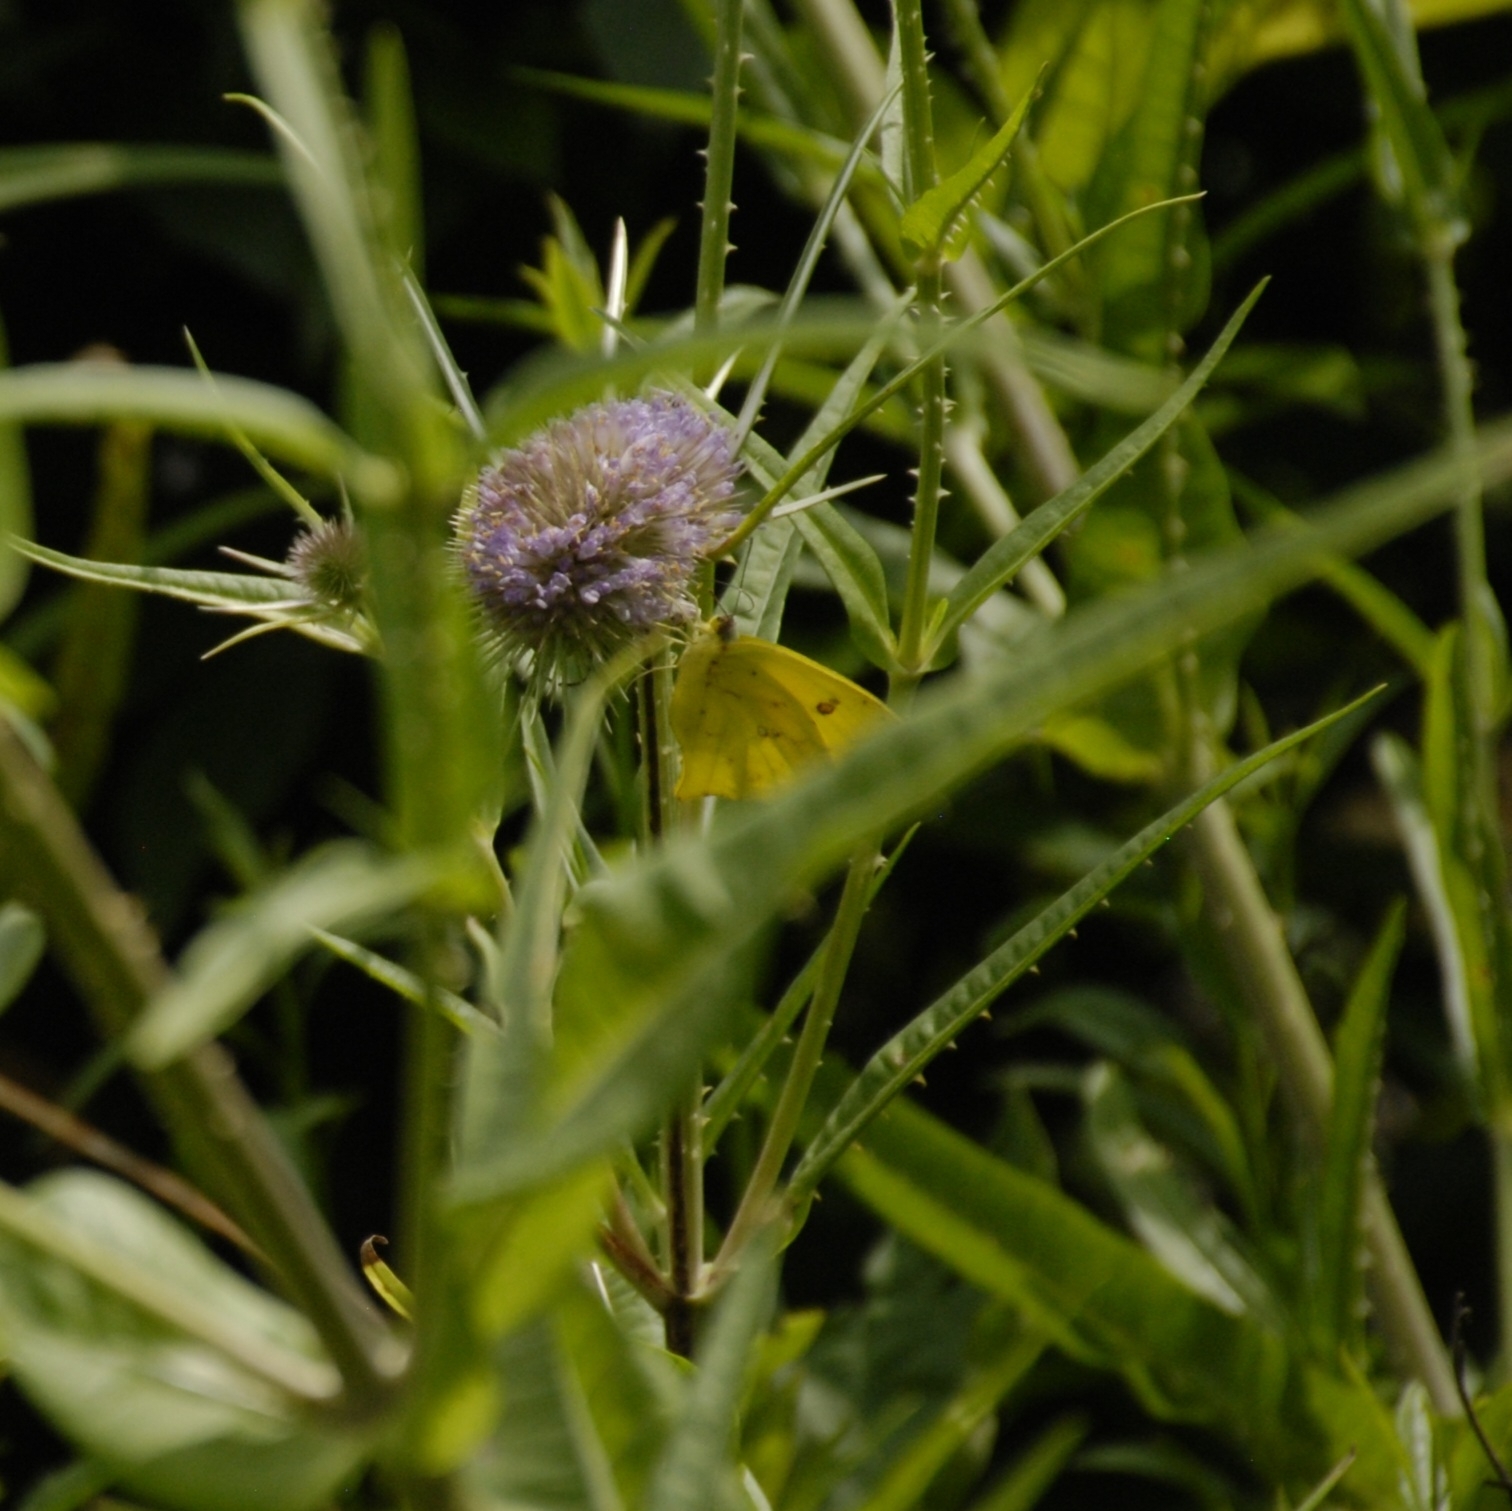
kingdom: Animalia
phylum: Arthropoda
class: Insecta
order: Lepidoptera
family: Pieridae
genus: Teriocolias
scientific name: Teriocolias
